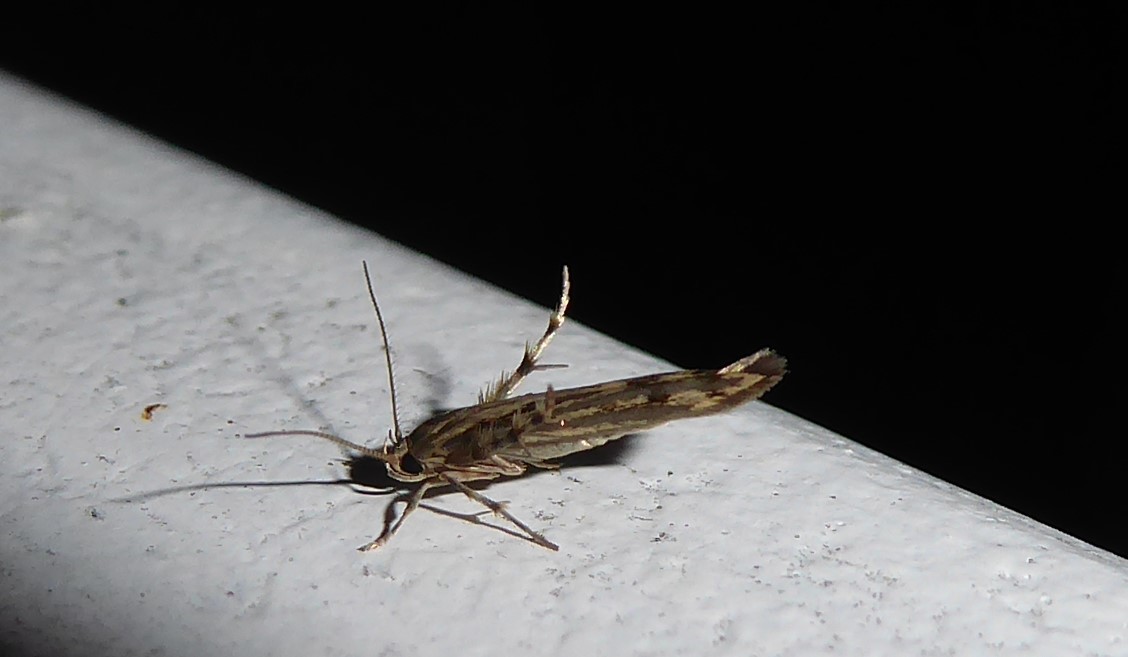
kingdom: Animalia
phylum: Arthropoda
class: Insecta
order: Lepidoptera
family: Stathmopodidae
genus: Stathmopoda
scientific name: Stathmopoda plumbiflua
